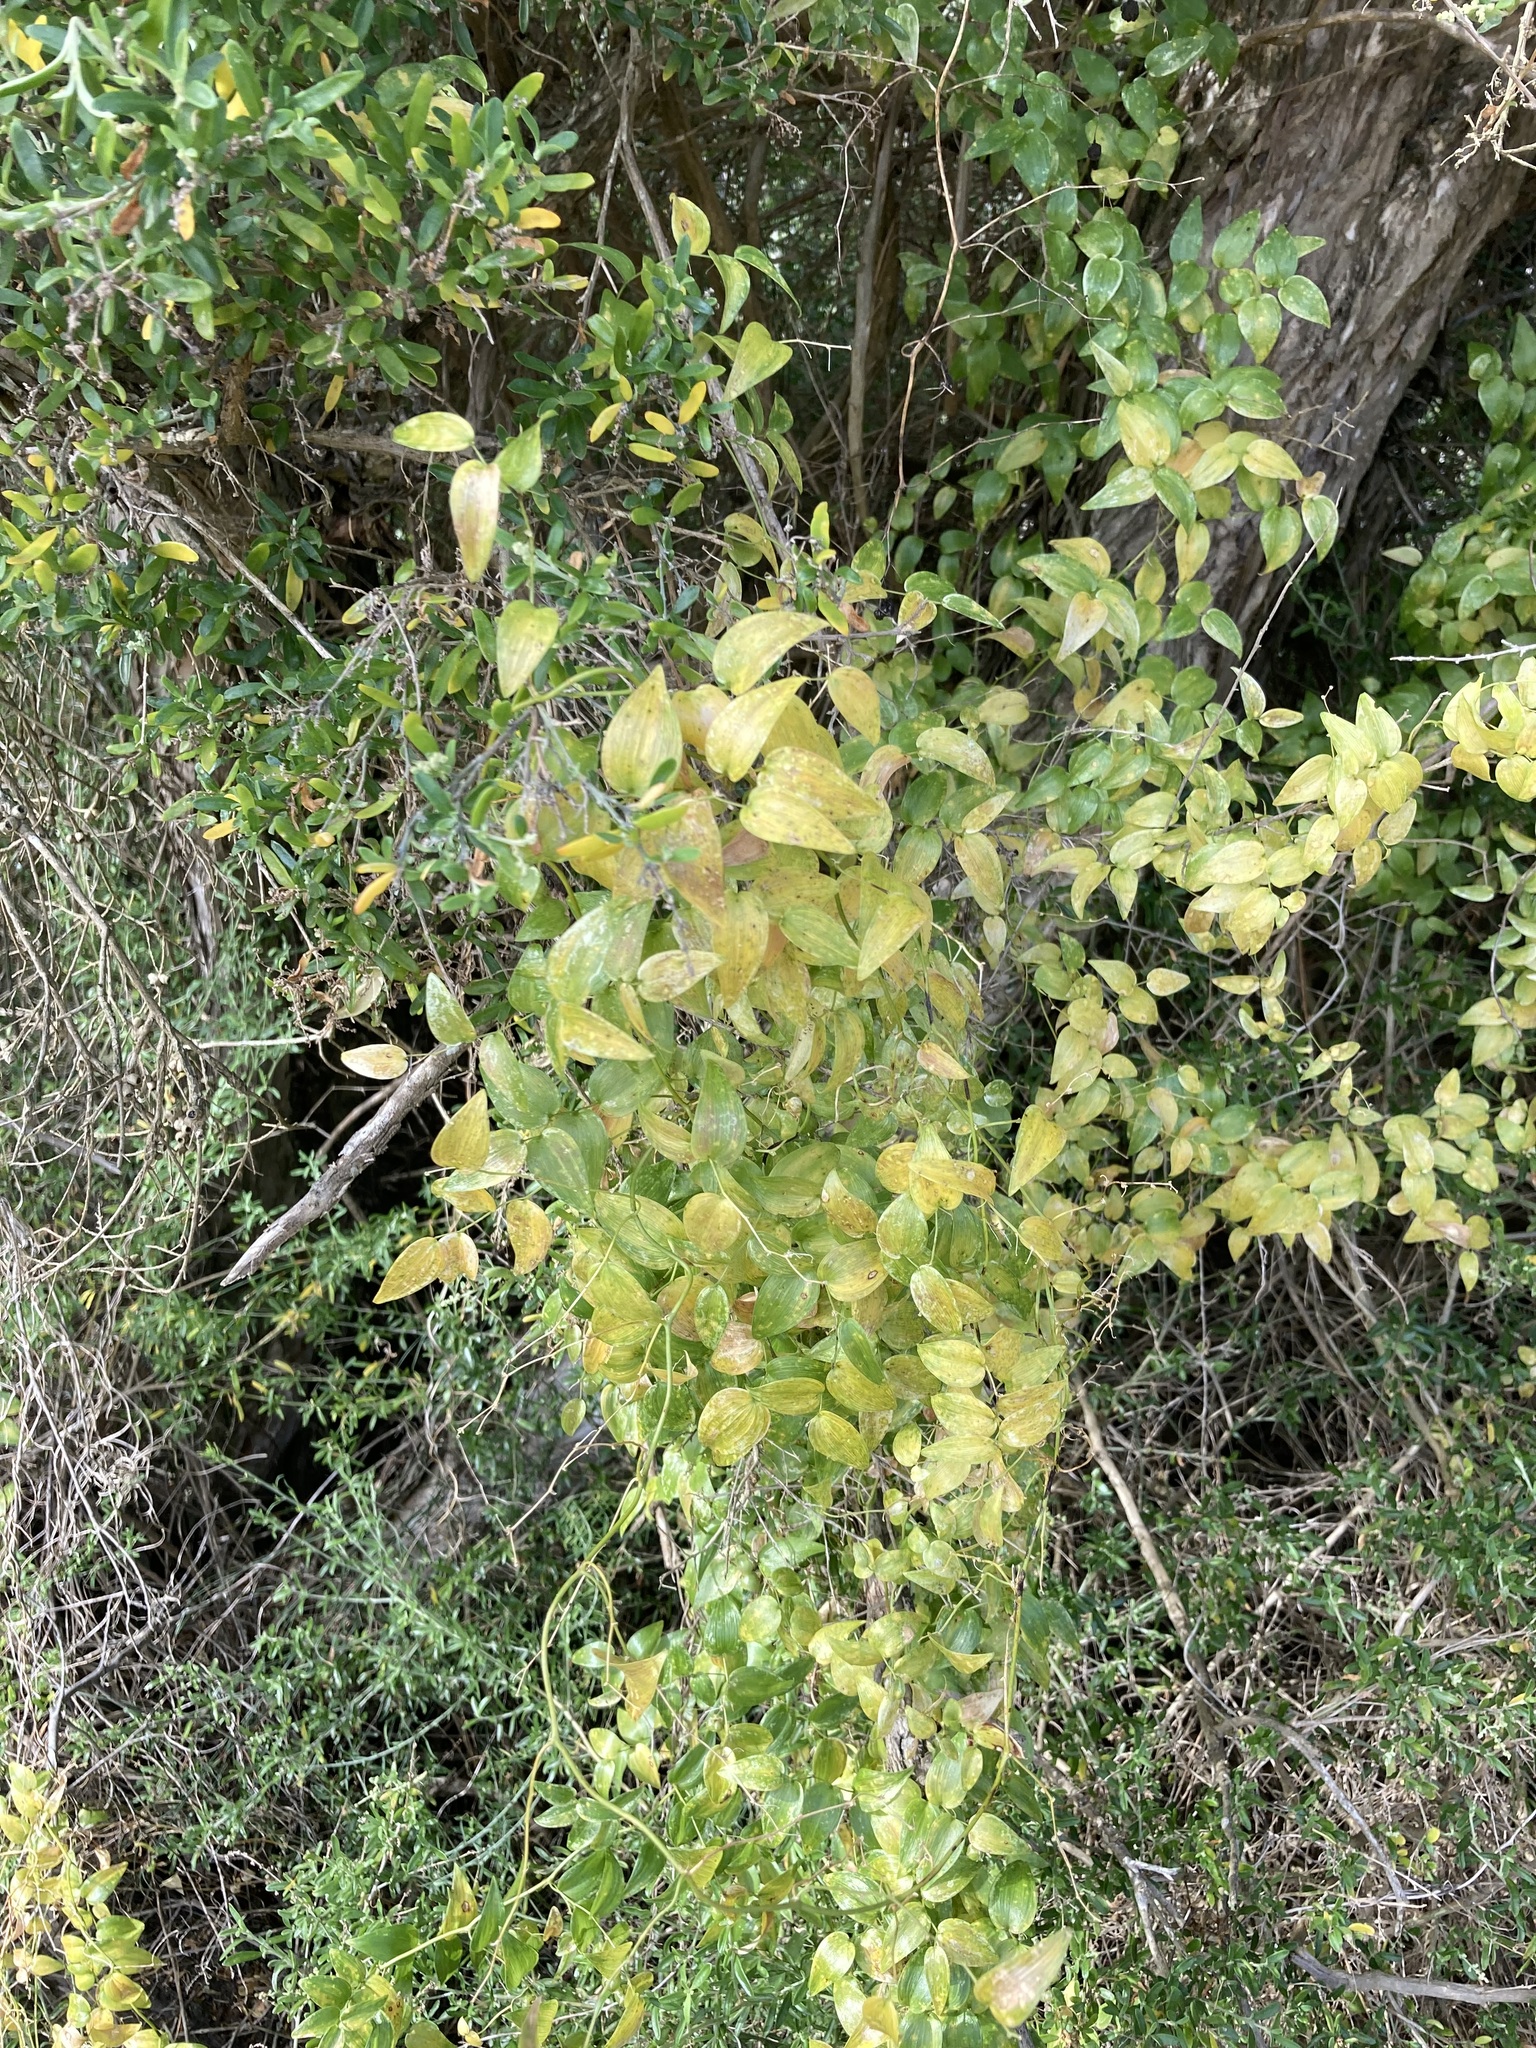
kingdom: Plantae
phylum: Tracheophyta
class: Liliopsida
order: Asparagales
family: Asparagaceae
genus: Asparagus
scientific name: Asparagus asparagoides
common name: African asparagus fern
